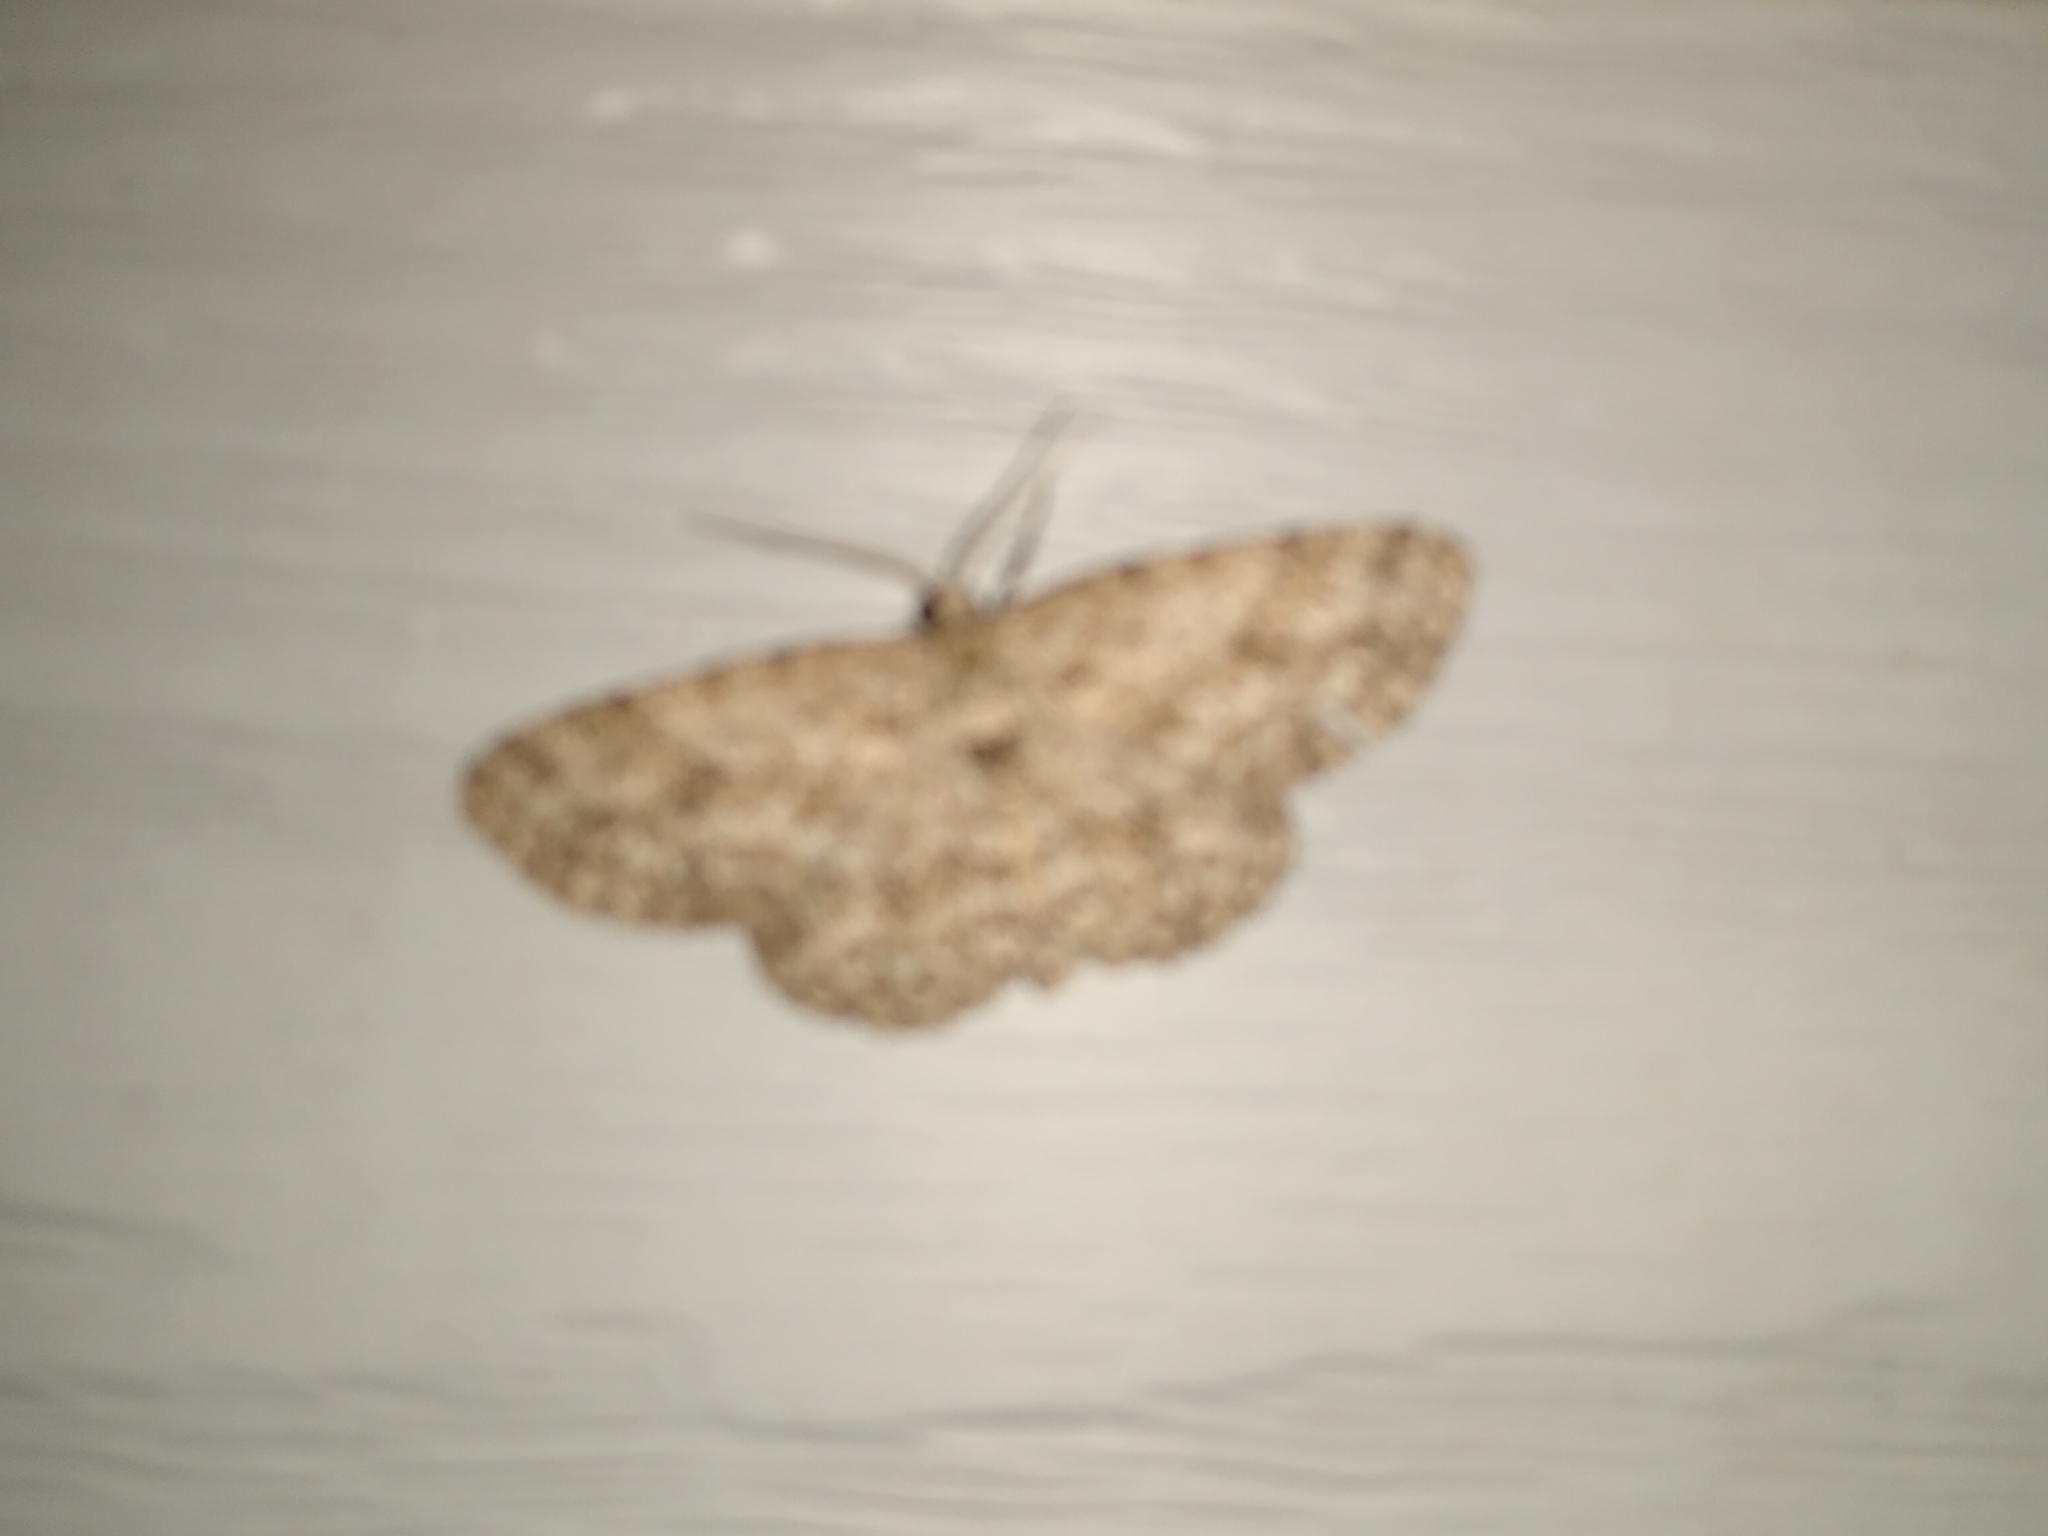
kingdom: Animalia
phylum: Arthropoda
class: Insecta
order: Lepidoptera
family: Geometridae
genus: Ectropis
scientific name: Ectropis crepuscularia
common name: Engrailed
